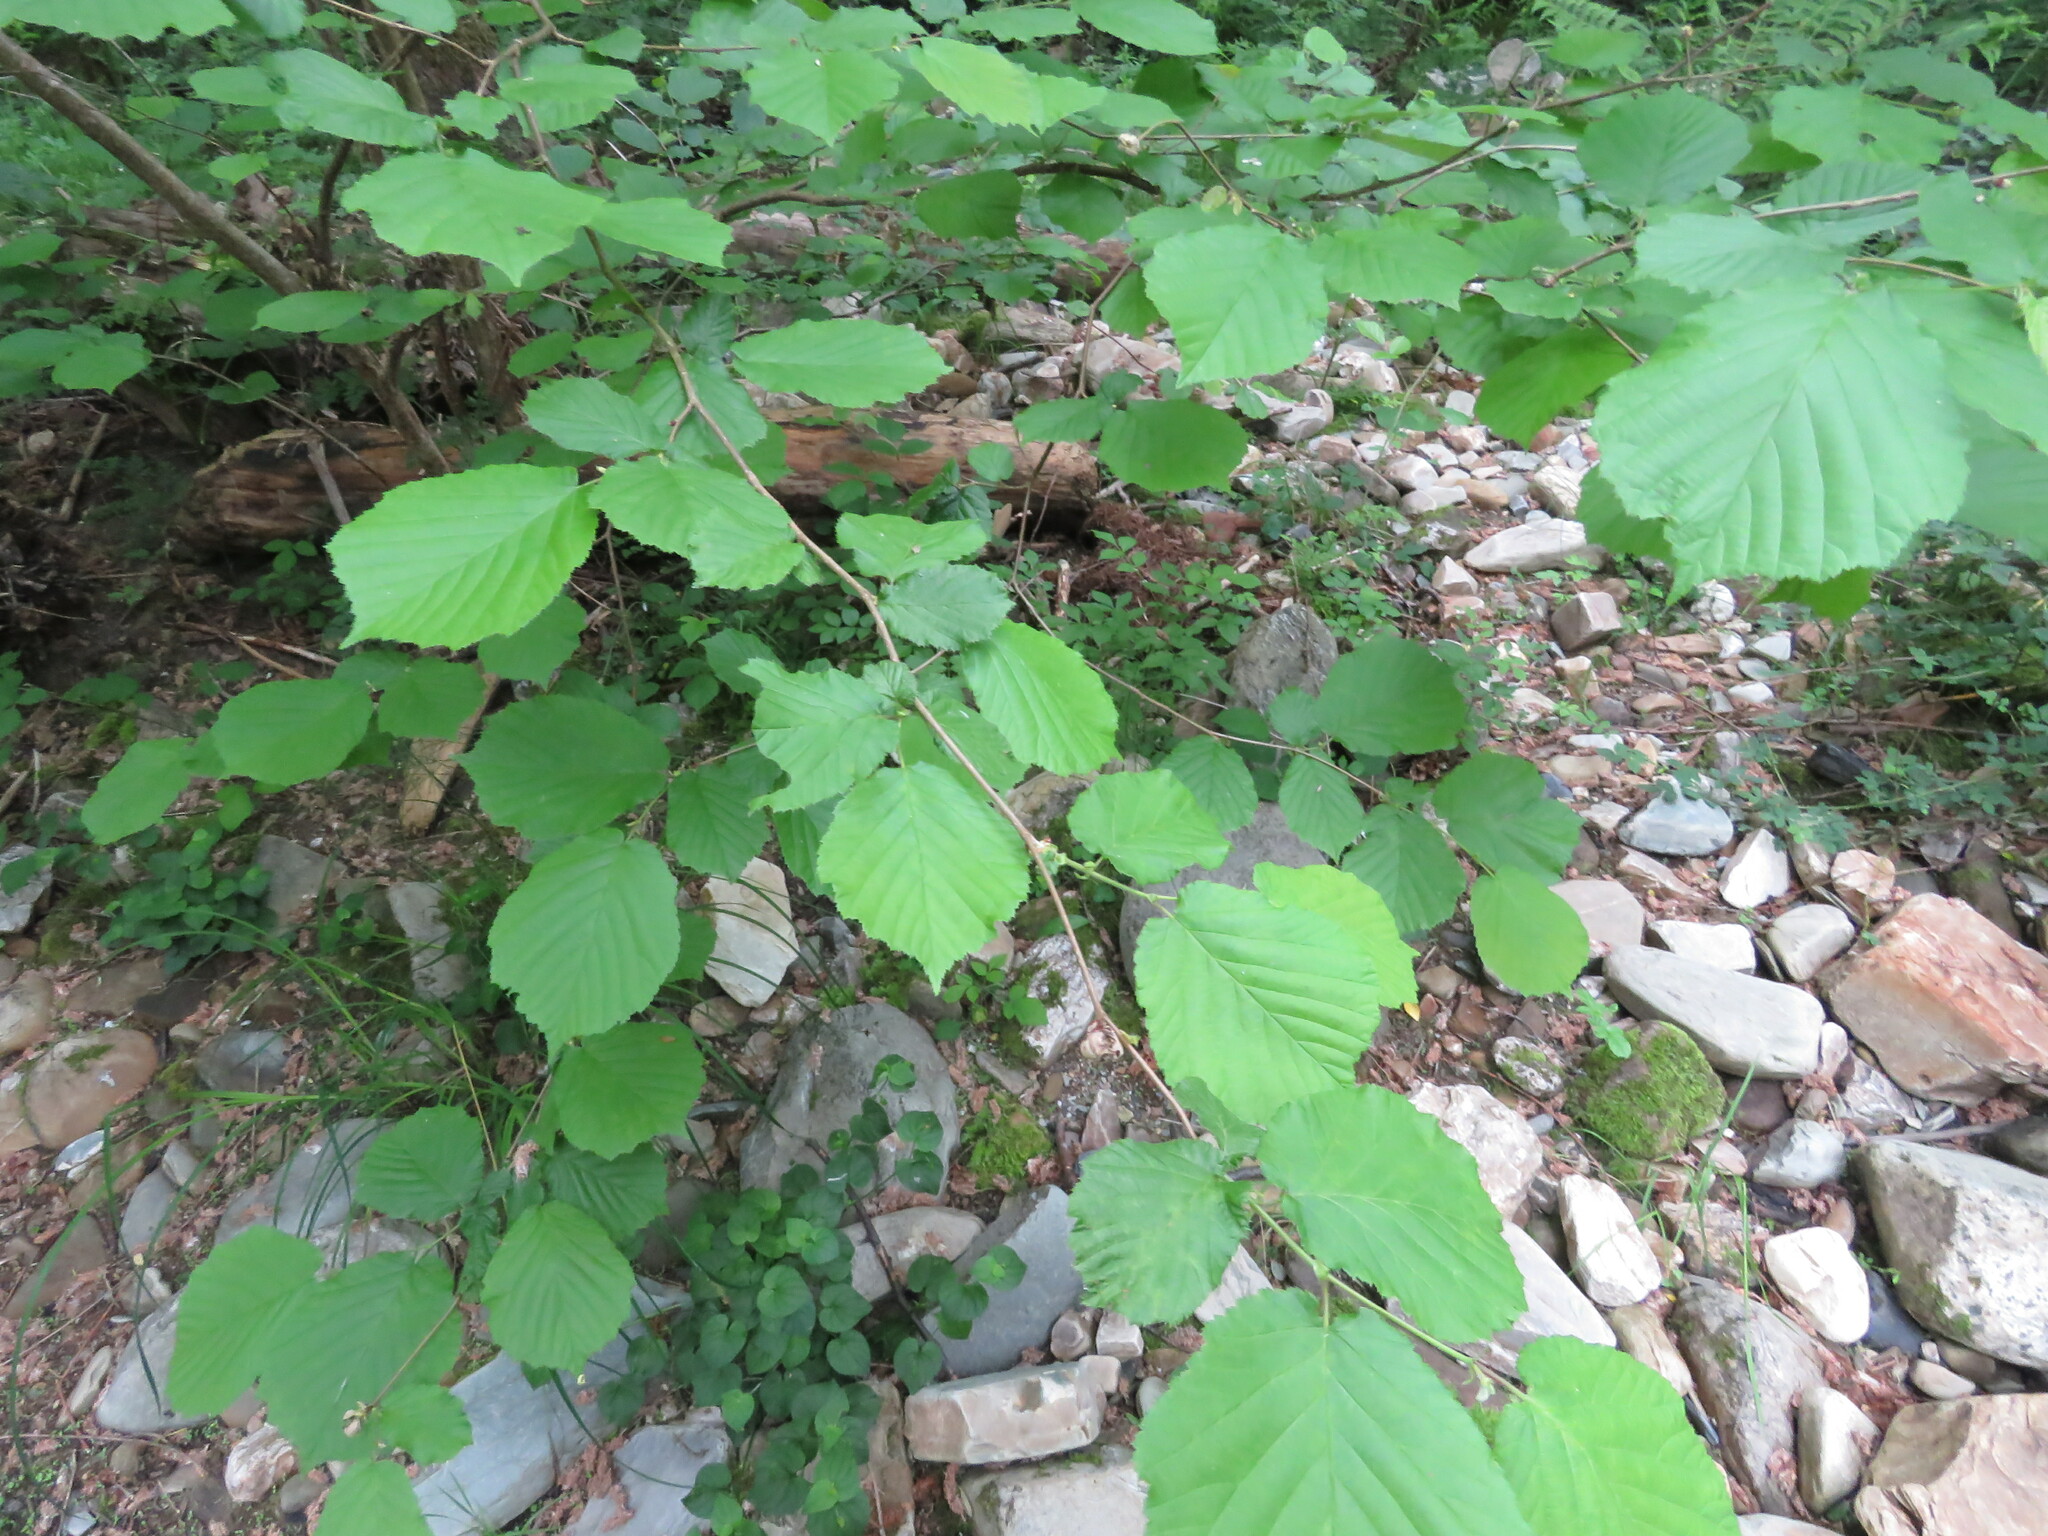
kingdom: Plantae
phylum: Tracheophyta
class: Magnoliopsida
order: Fagales
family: Betulaceae
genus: Corylus
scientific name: Corylus avellana
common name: European hazel
